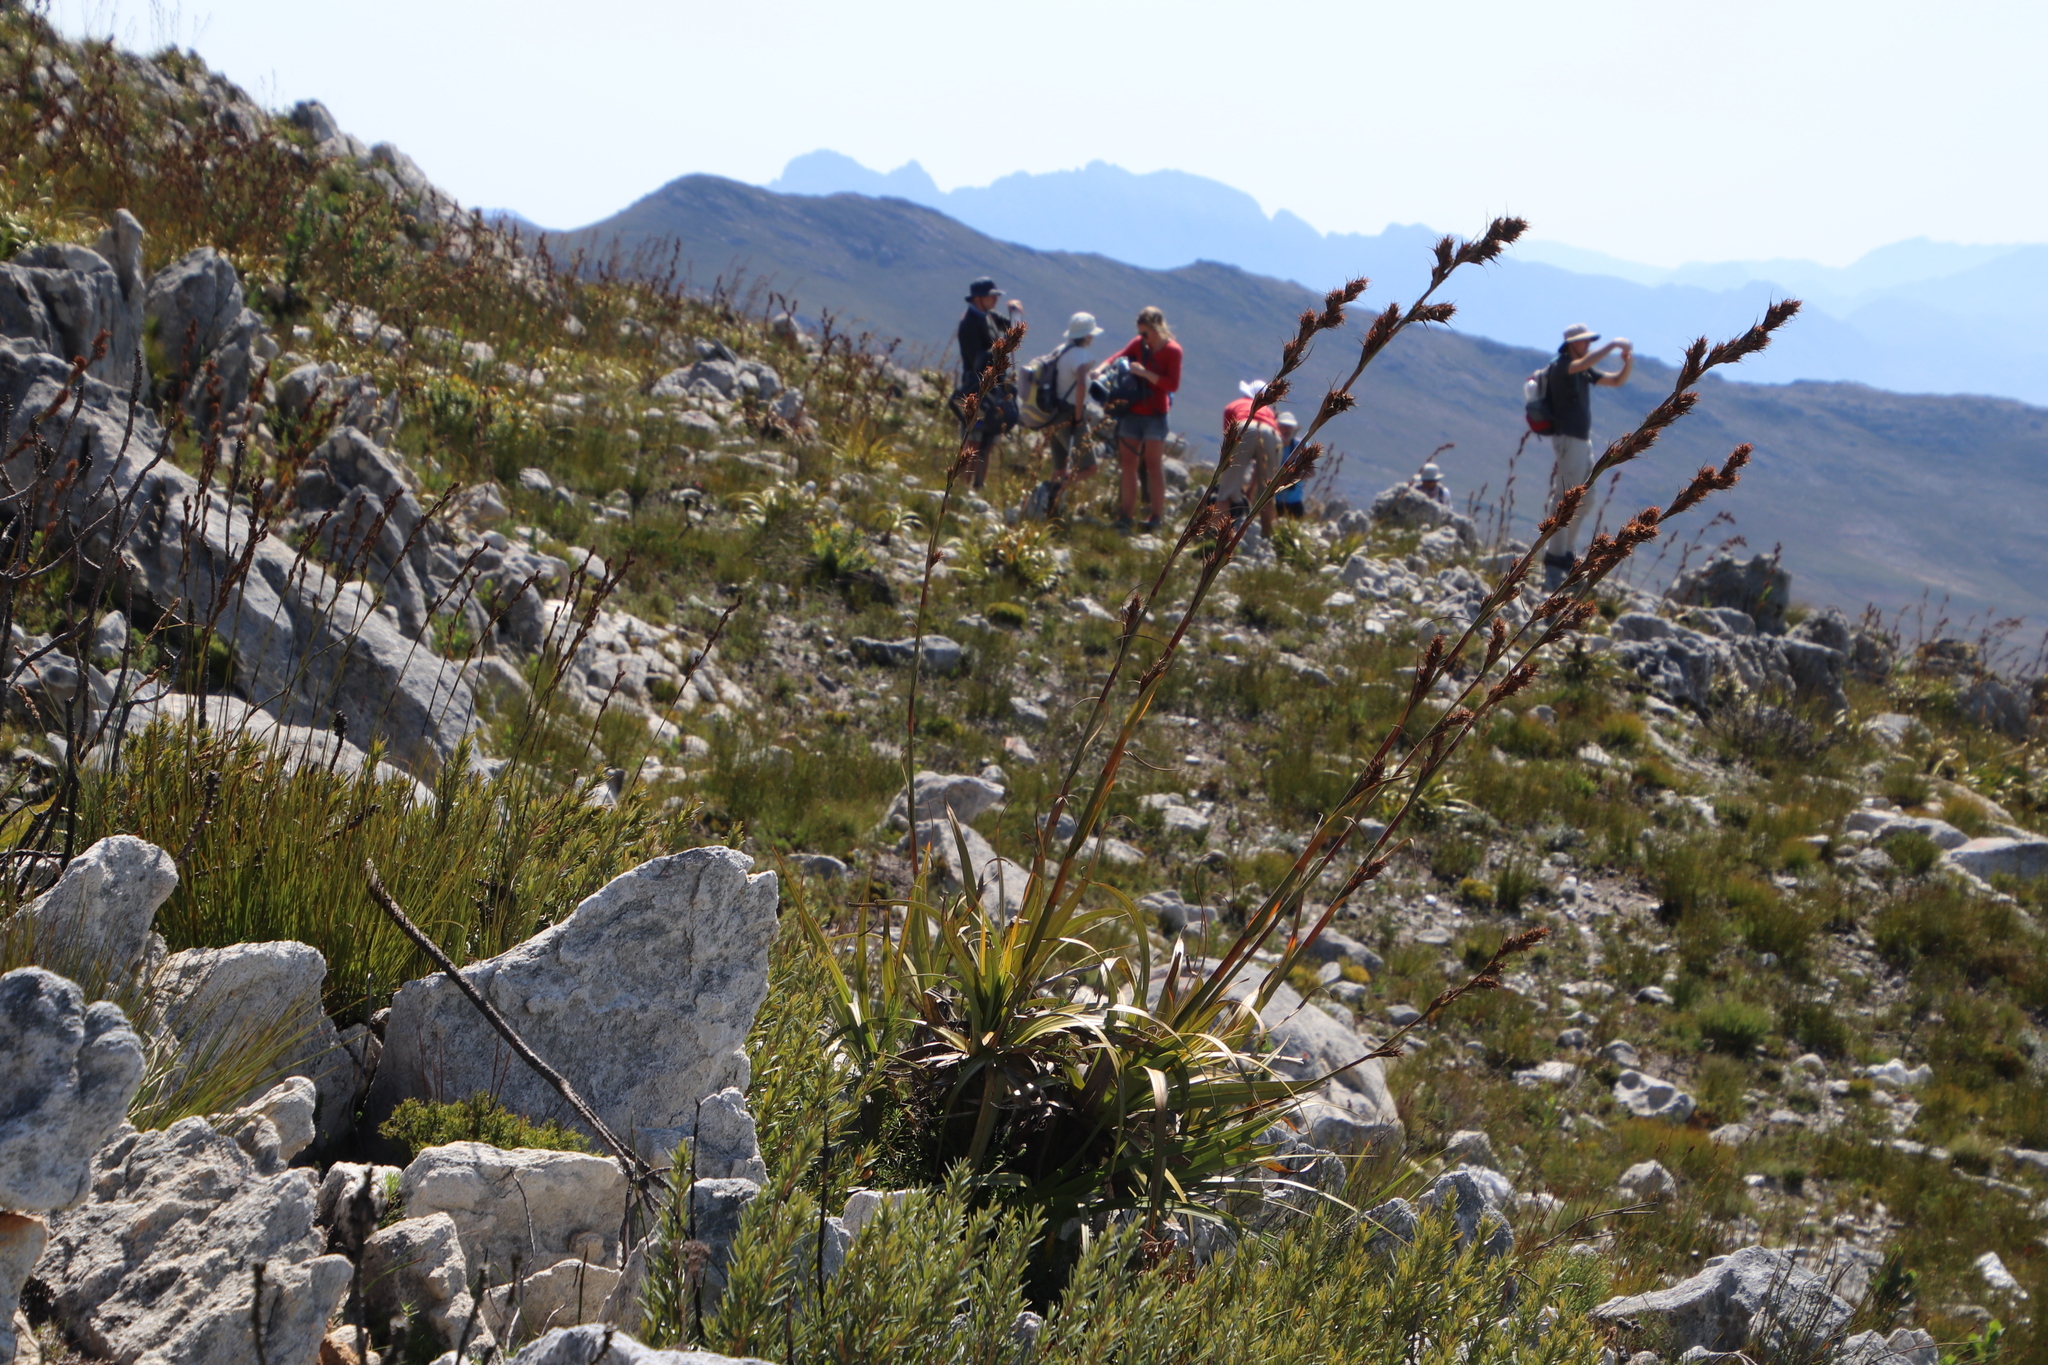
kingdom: Plantae
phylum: Tracheophyta
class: Liliopsida
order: Poales
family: Cyperaceae
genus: Tetraria
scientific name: Tetraria thermalis
